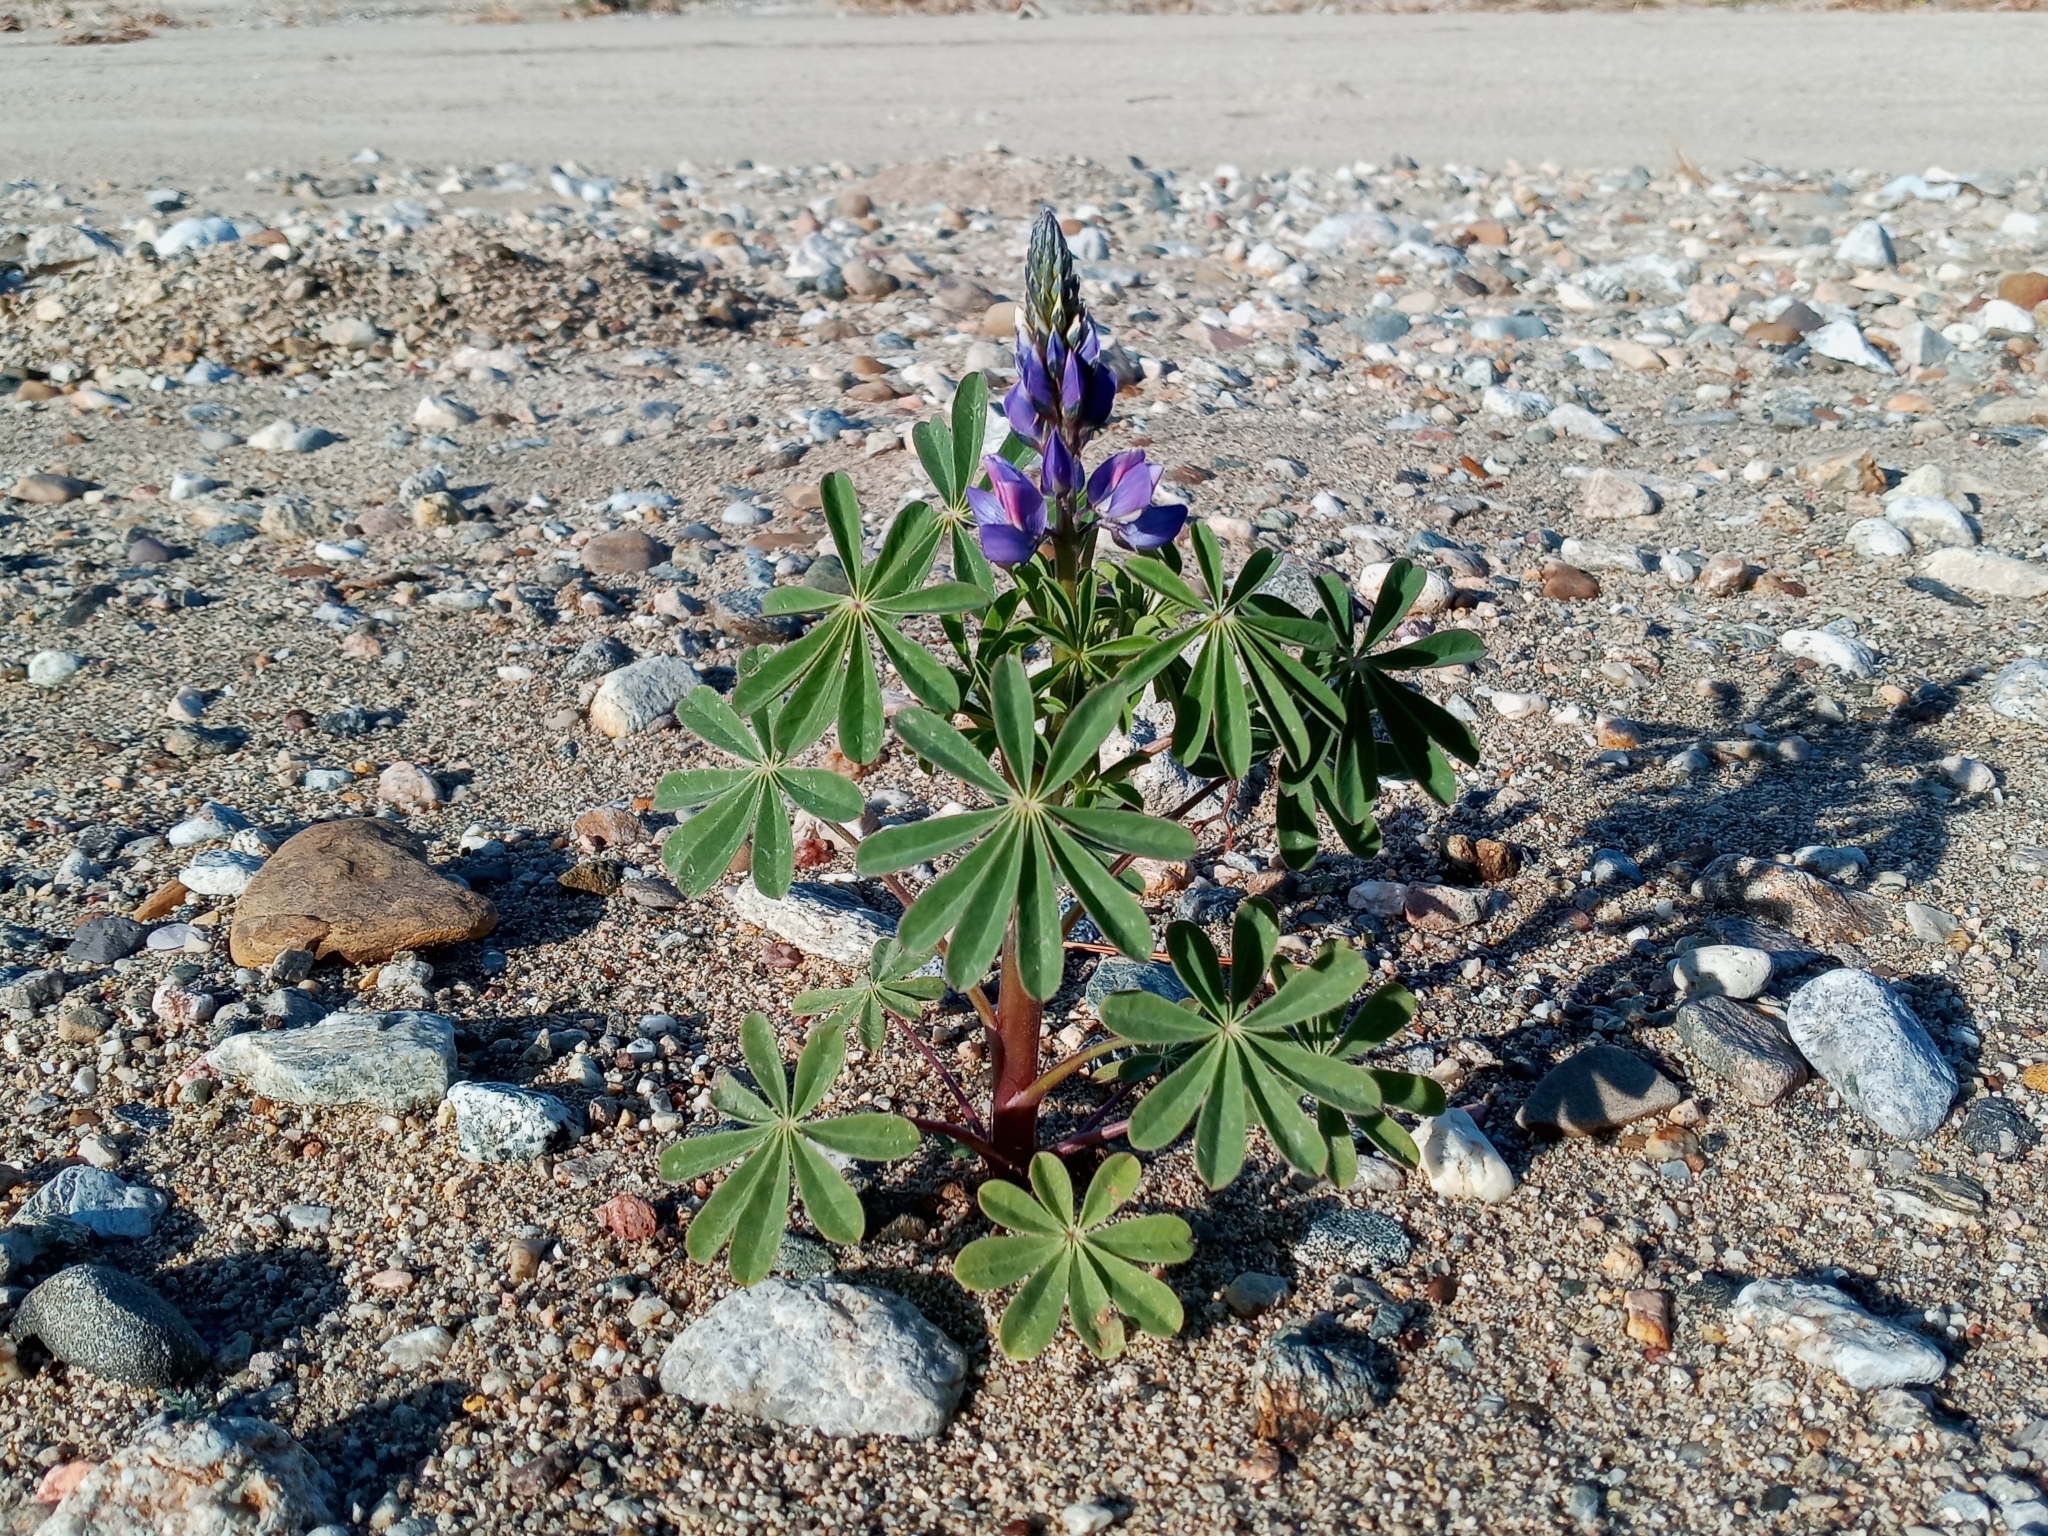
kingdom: Plantae
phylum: Tracheophyta
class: Magnoliopsida
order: Fabales
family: Fabaceae
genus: Lupinus
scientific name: Lupinus succulentus
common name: Arroyo lupine
